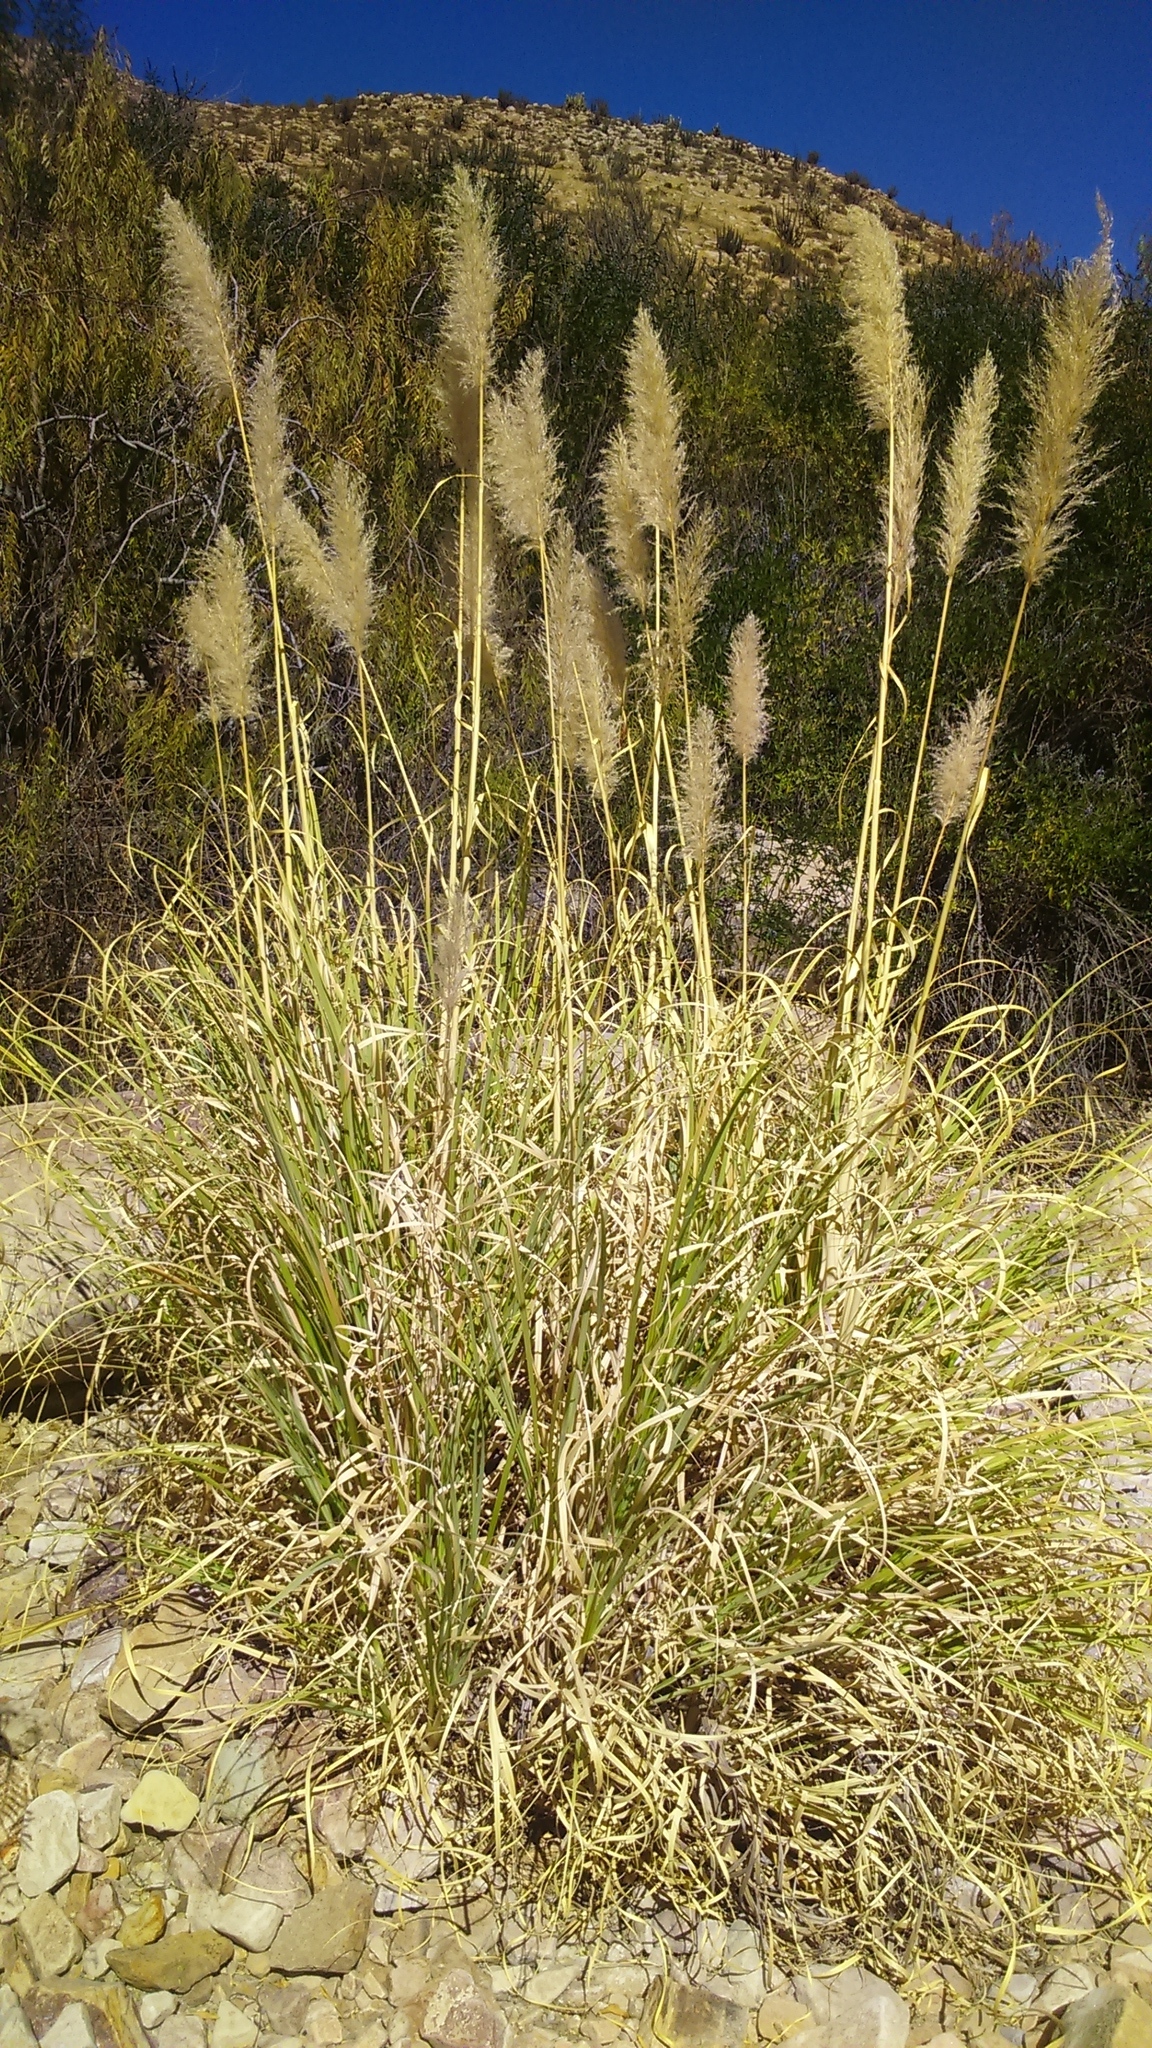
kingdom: Plantae
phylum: Tracheophyta
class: Liliopsida
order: Poales
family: Poaceae
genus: Cortaderia
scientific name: Cortaderia selloana
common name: Uruguayan pampas grass
